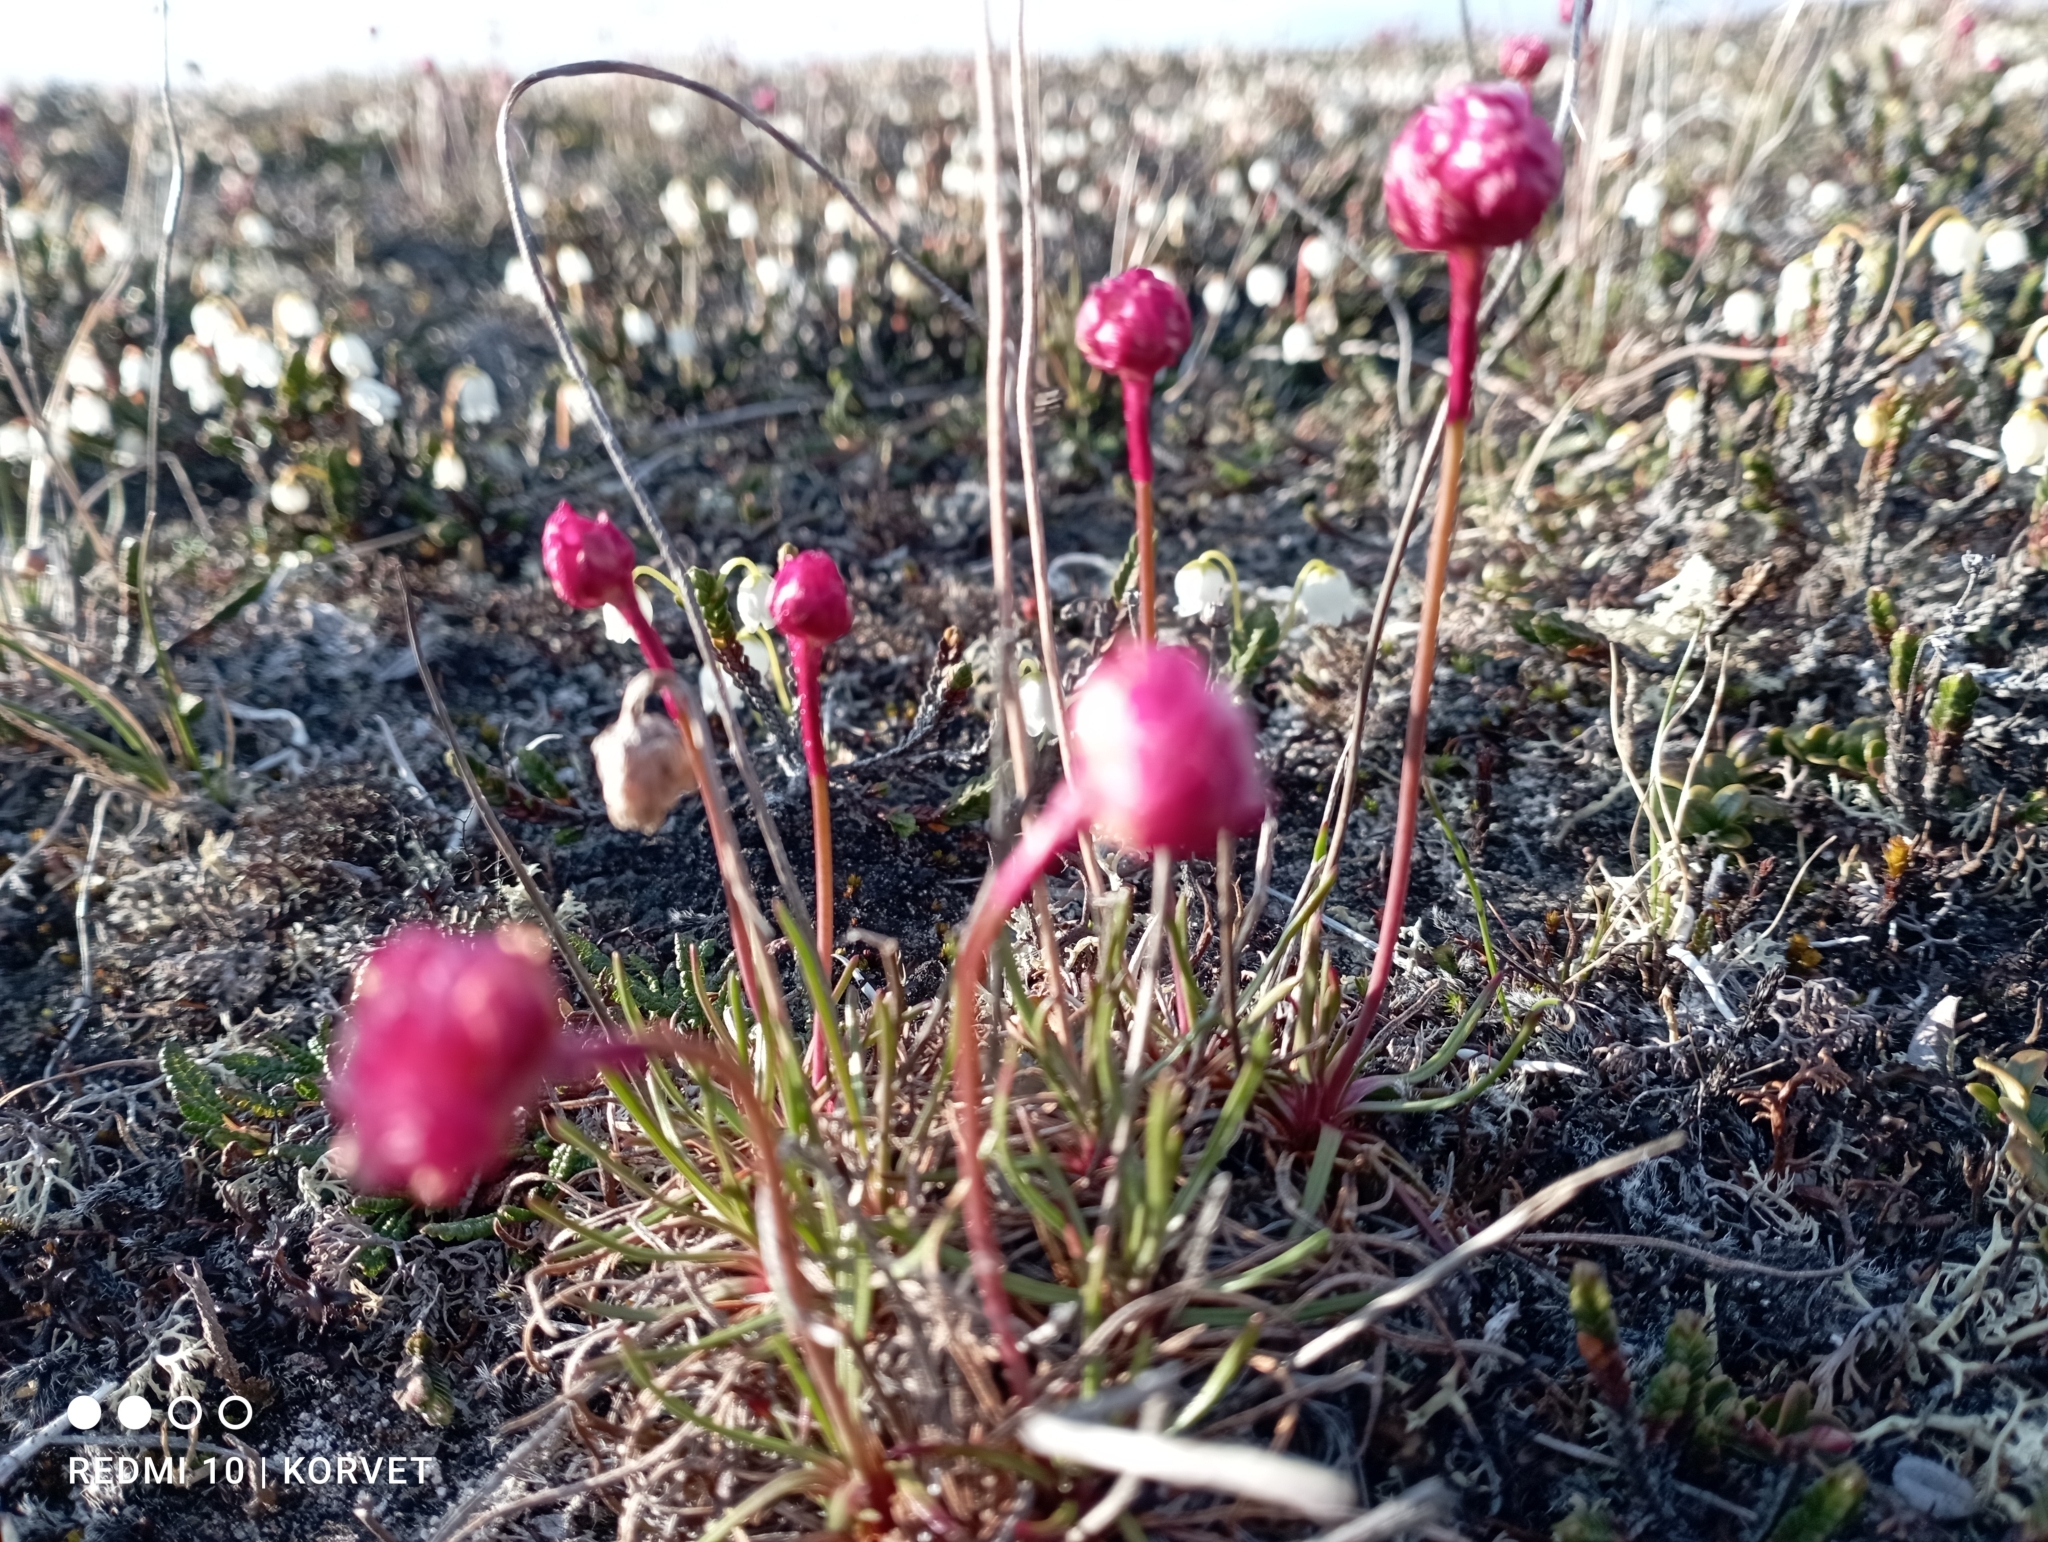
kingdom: Plantae
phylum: Tracheophyta
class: Magnoliopsida
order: Caryophyllales
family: Plumbaginaceae
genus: Armeria
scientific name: Armeria maritima
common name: Thrift
